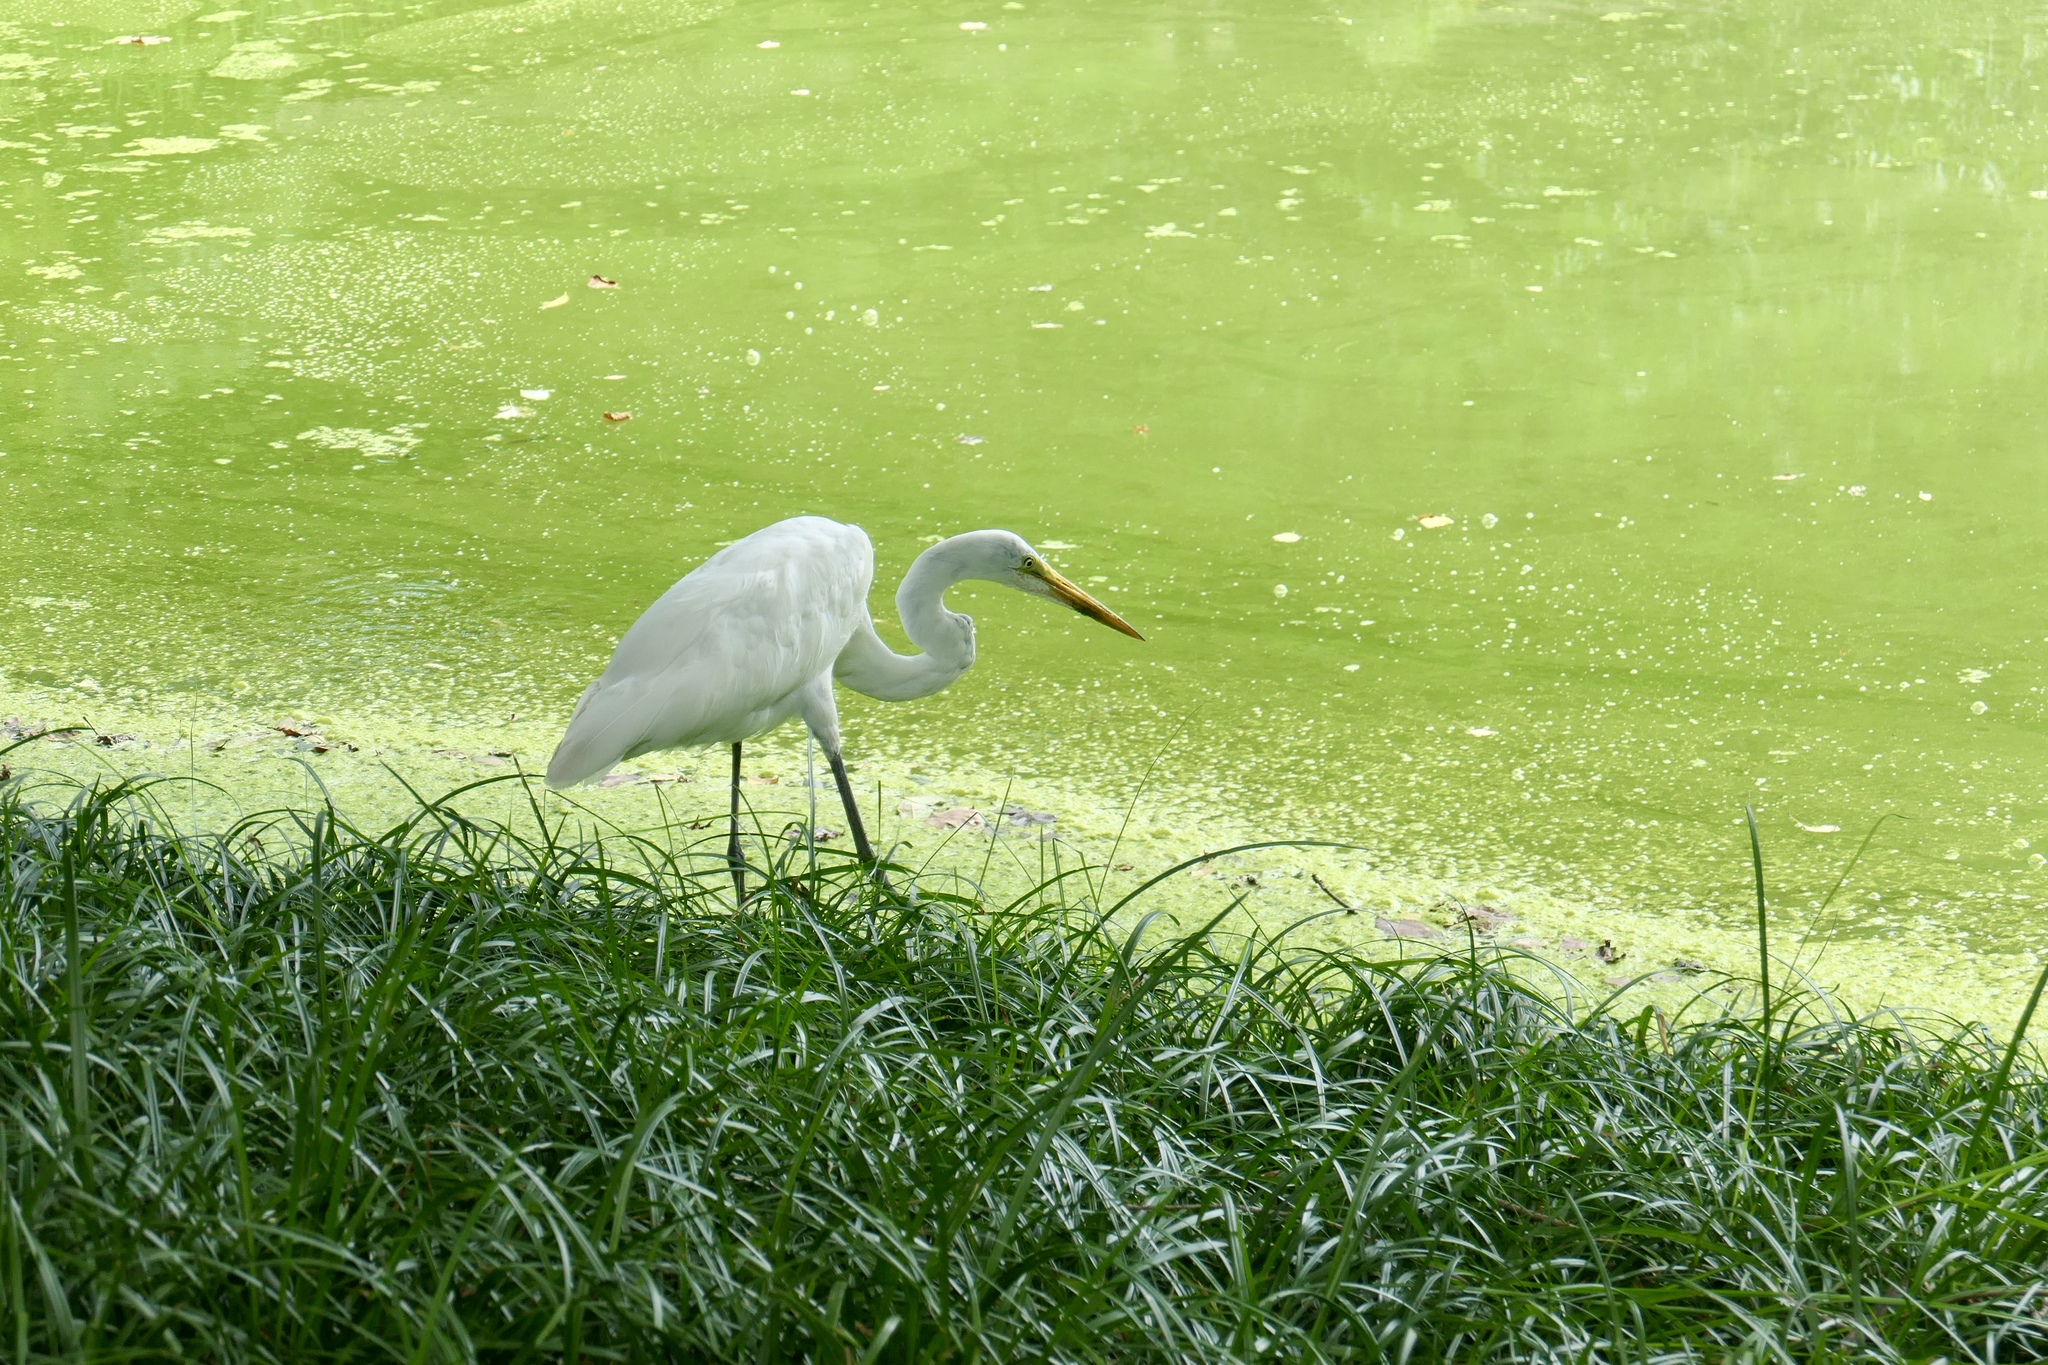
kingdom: Animalia
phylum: Chordata
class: Aves
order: Pelecaniformes
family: Ardeidae
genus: Ardea
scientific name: Ardea alba
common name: Great egret
